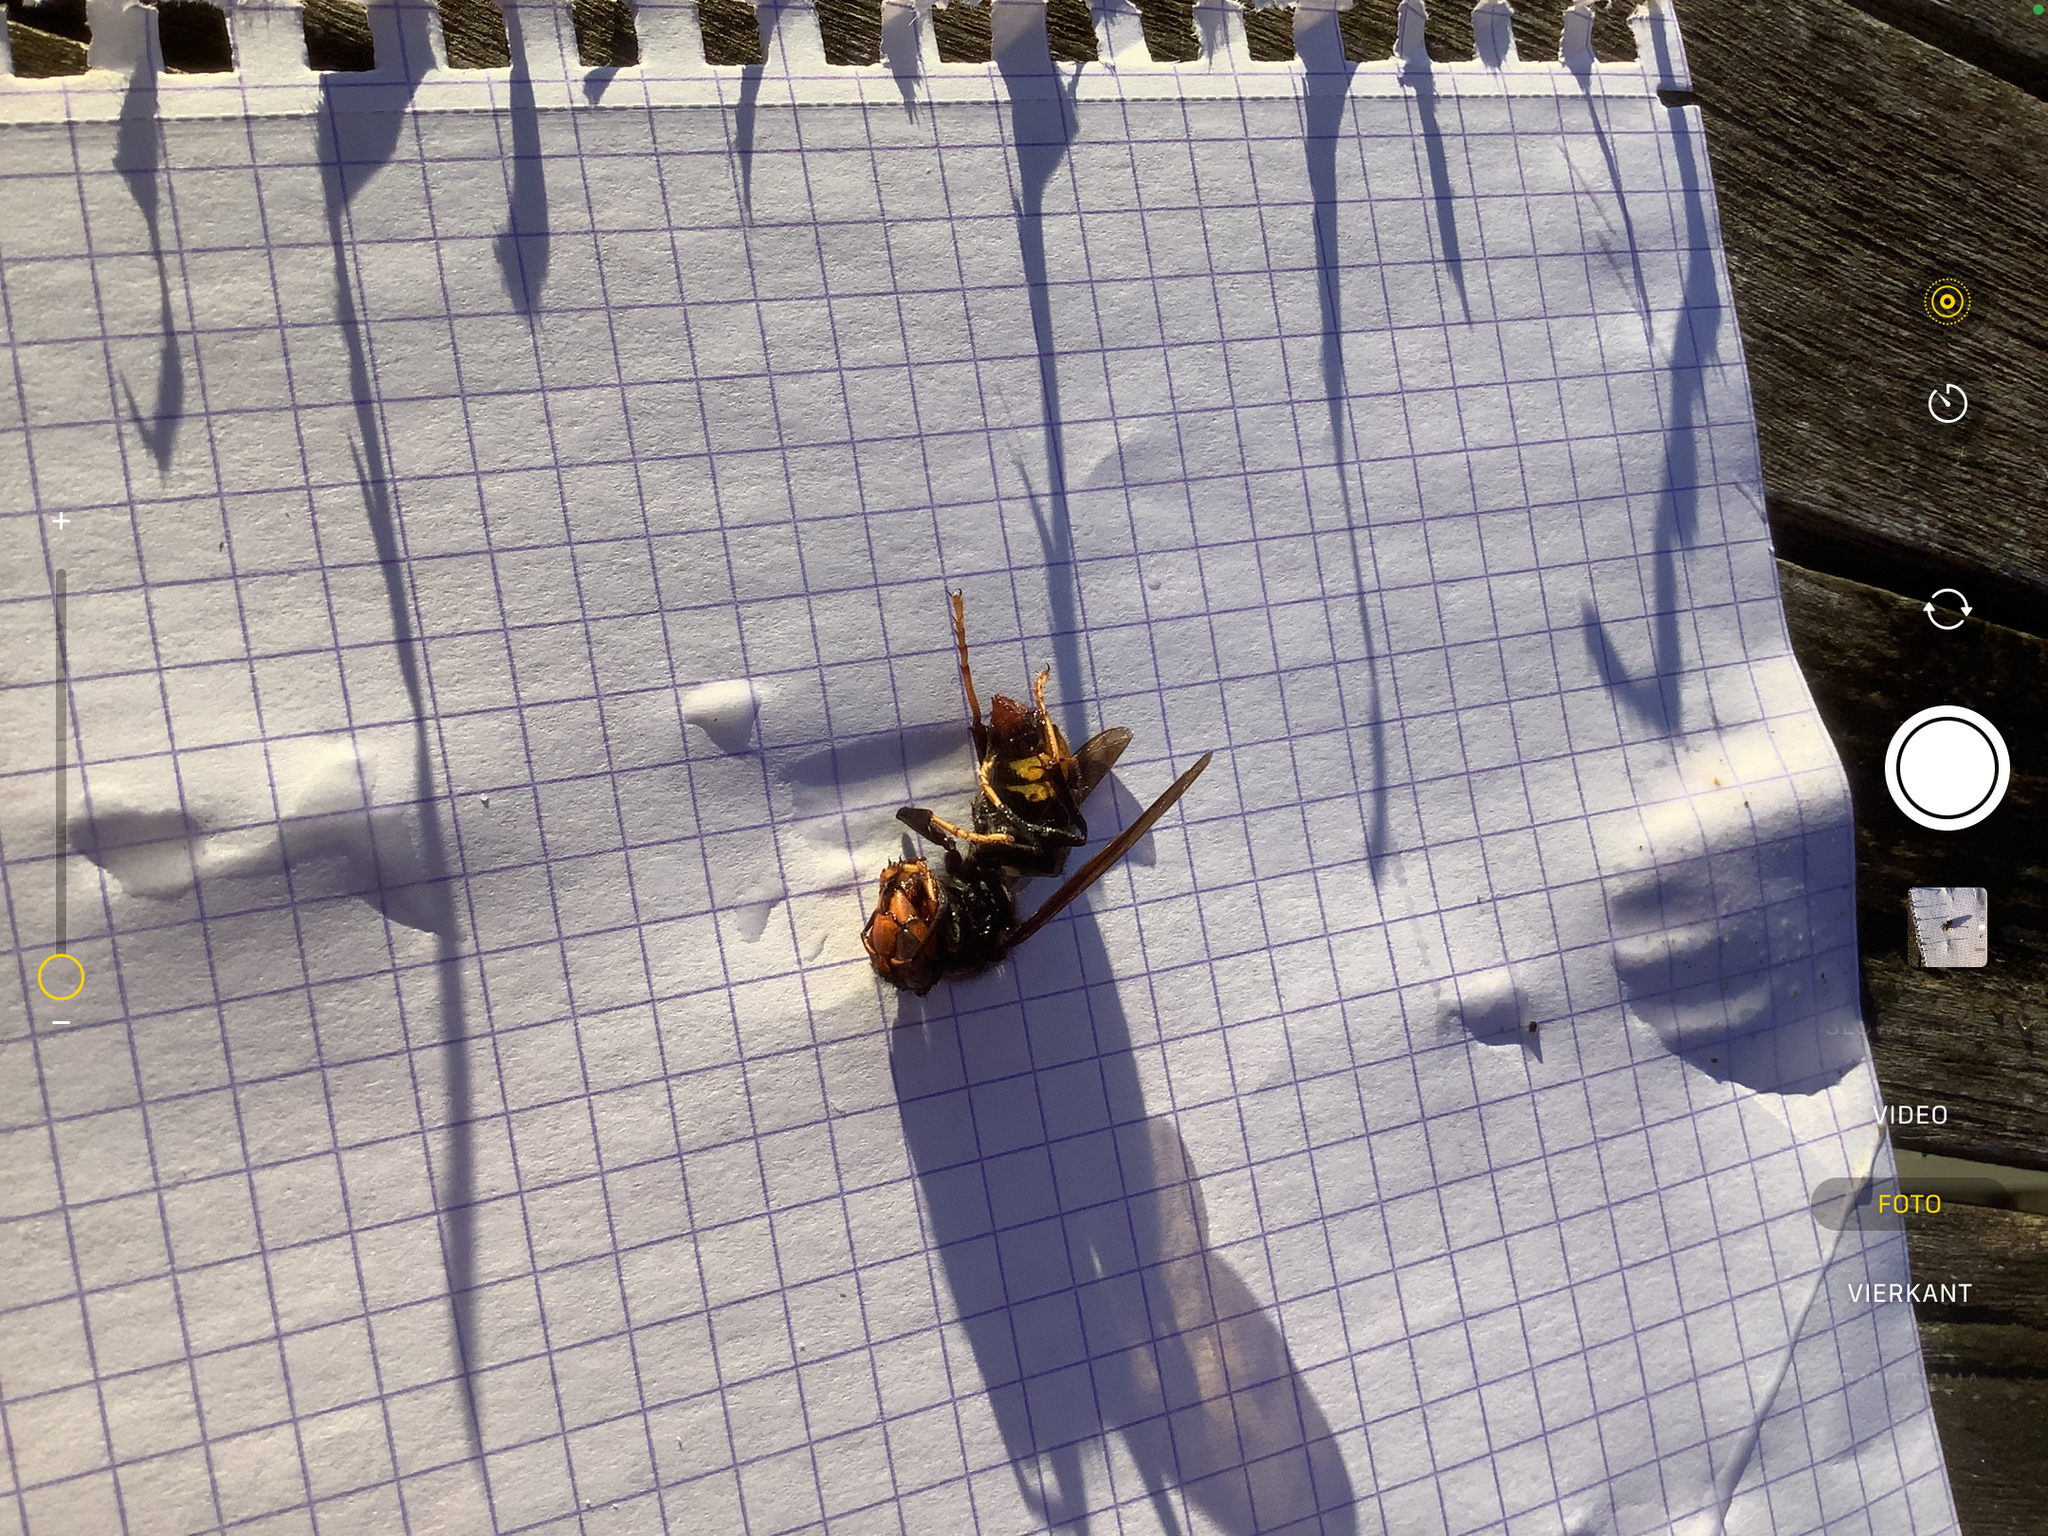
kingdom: Animalia
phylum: Arthropoda
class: Insecta
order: Hymenoptera
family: Vespidae
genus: Vespa
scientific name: Vespa velutina
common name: Asian hornet
